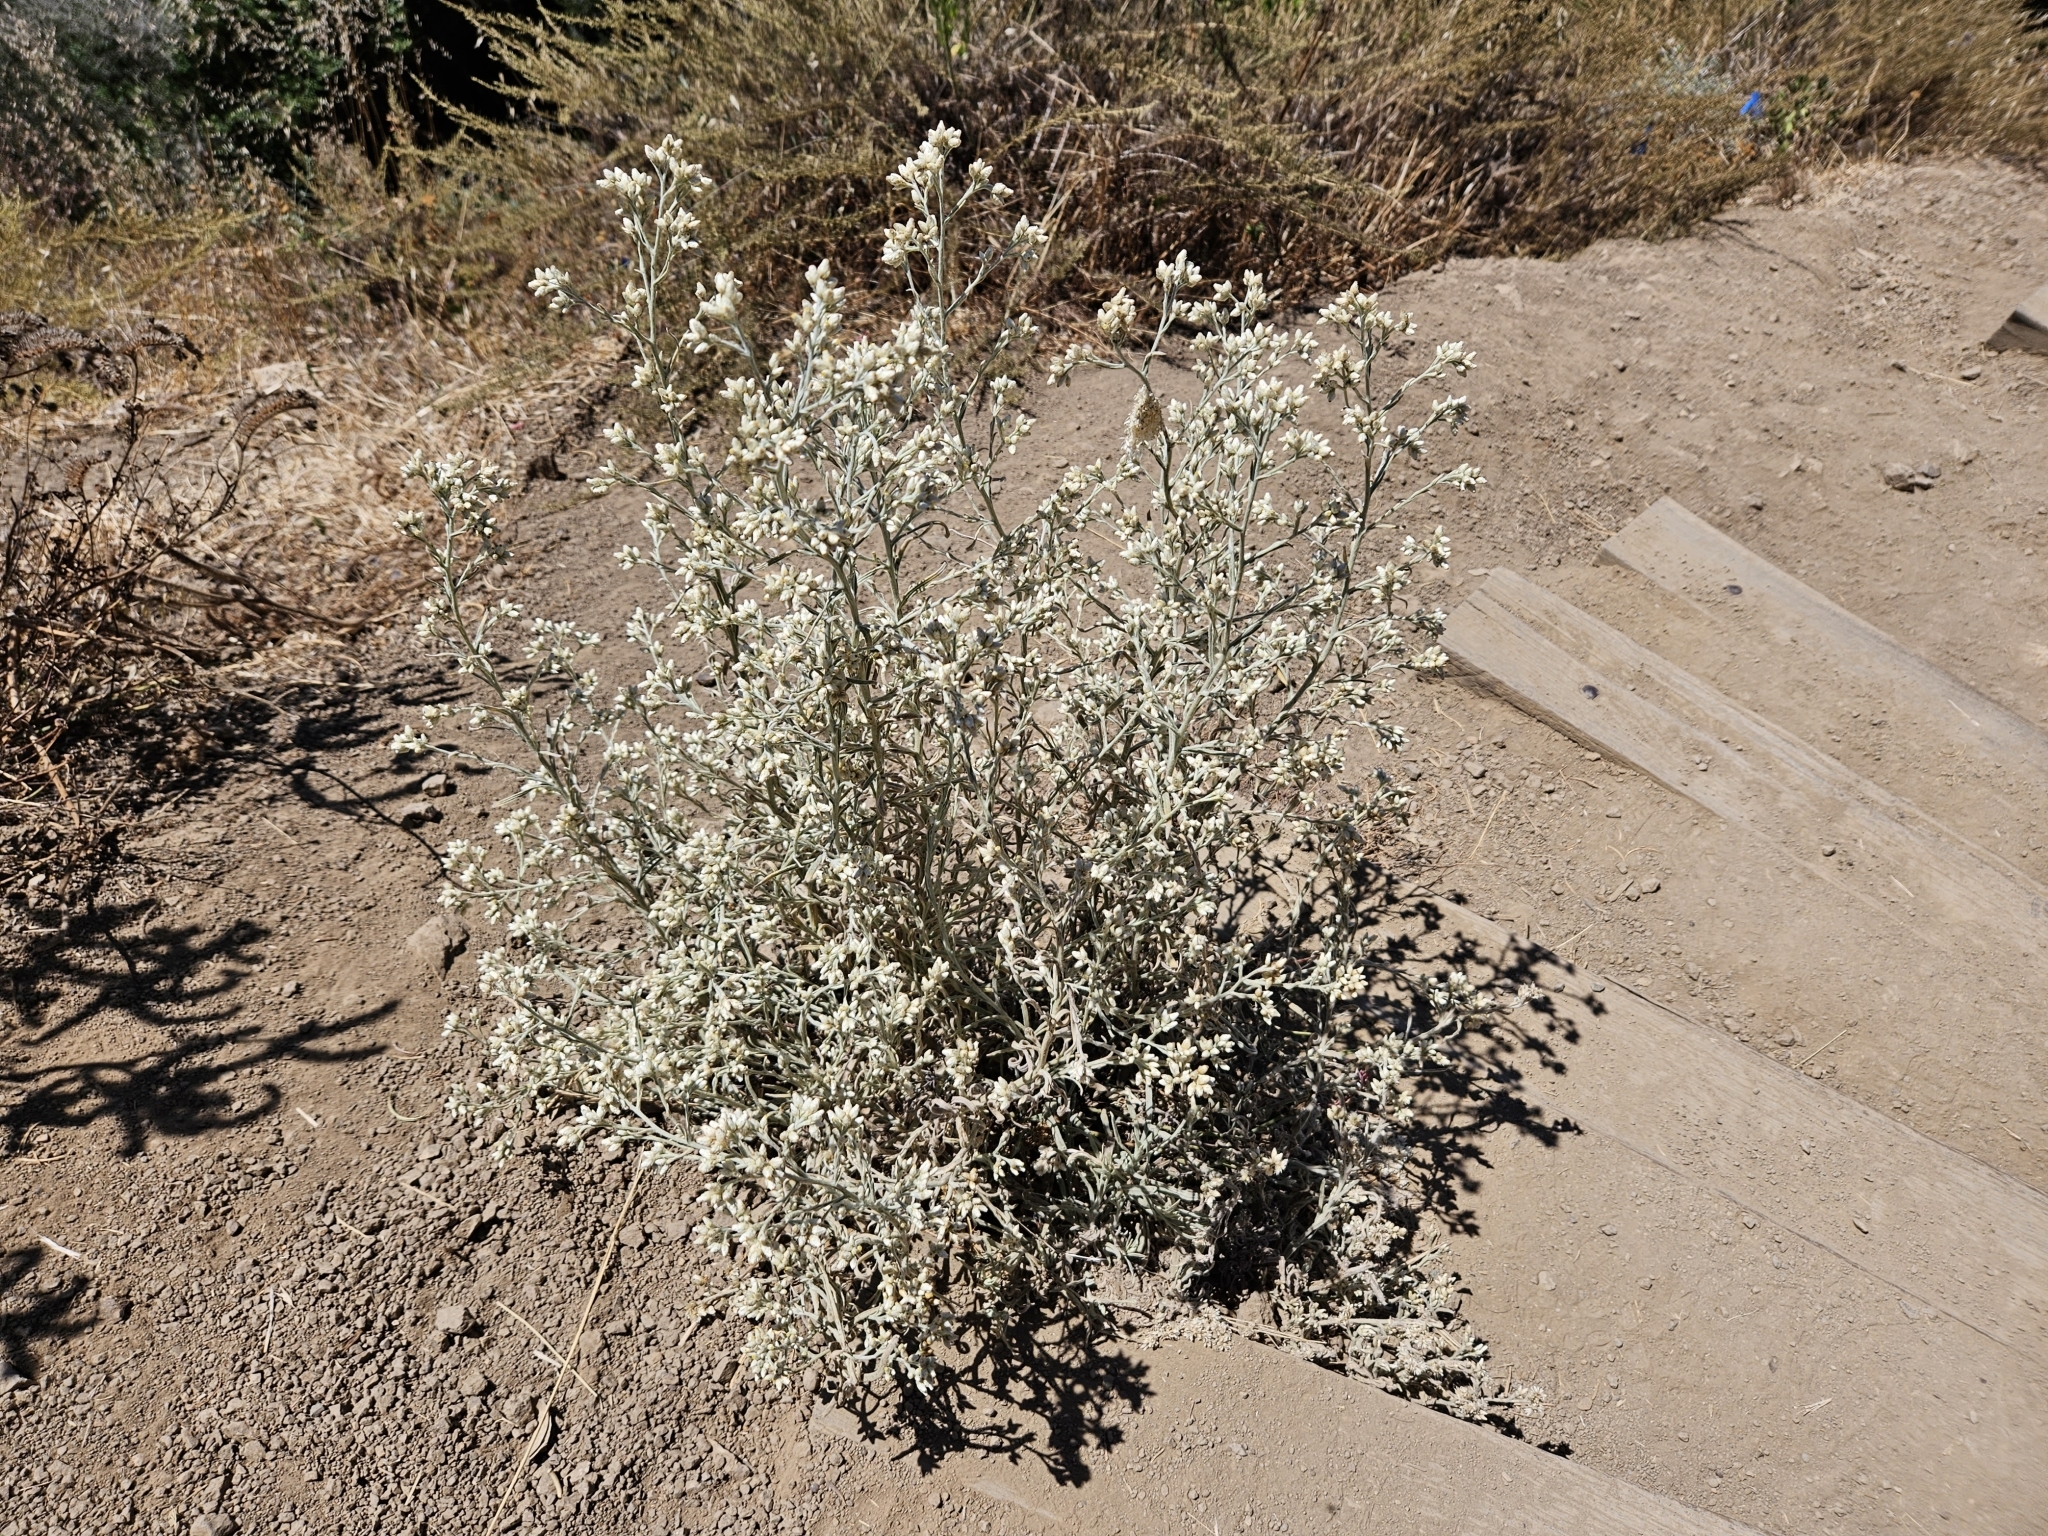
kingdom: Plantae
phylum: Tracheophyta
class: Magnoliopsida
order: Asterales
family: Asteraceae
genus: Pseudognaphalium
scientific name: Pseudognaphalium beneolens
